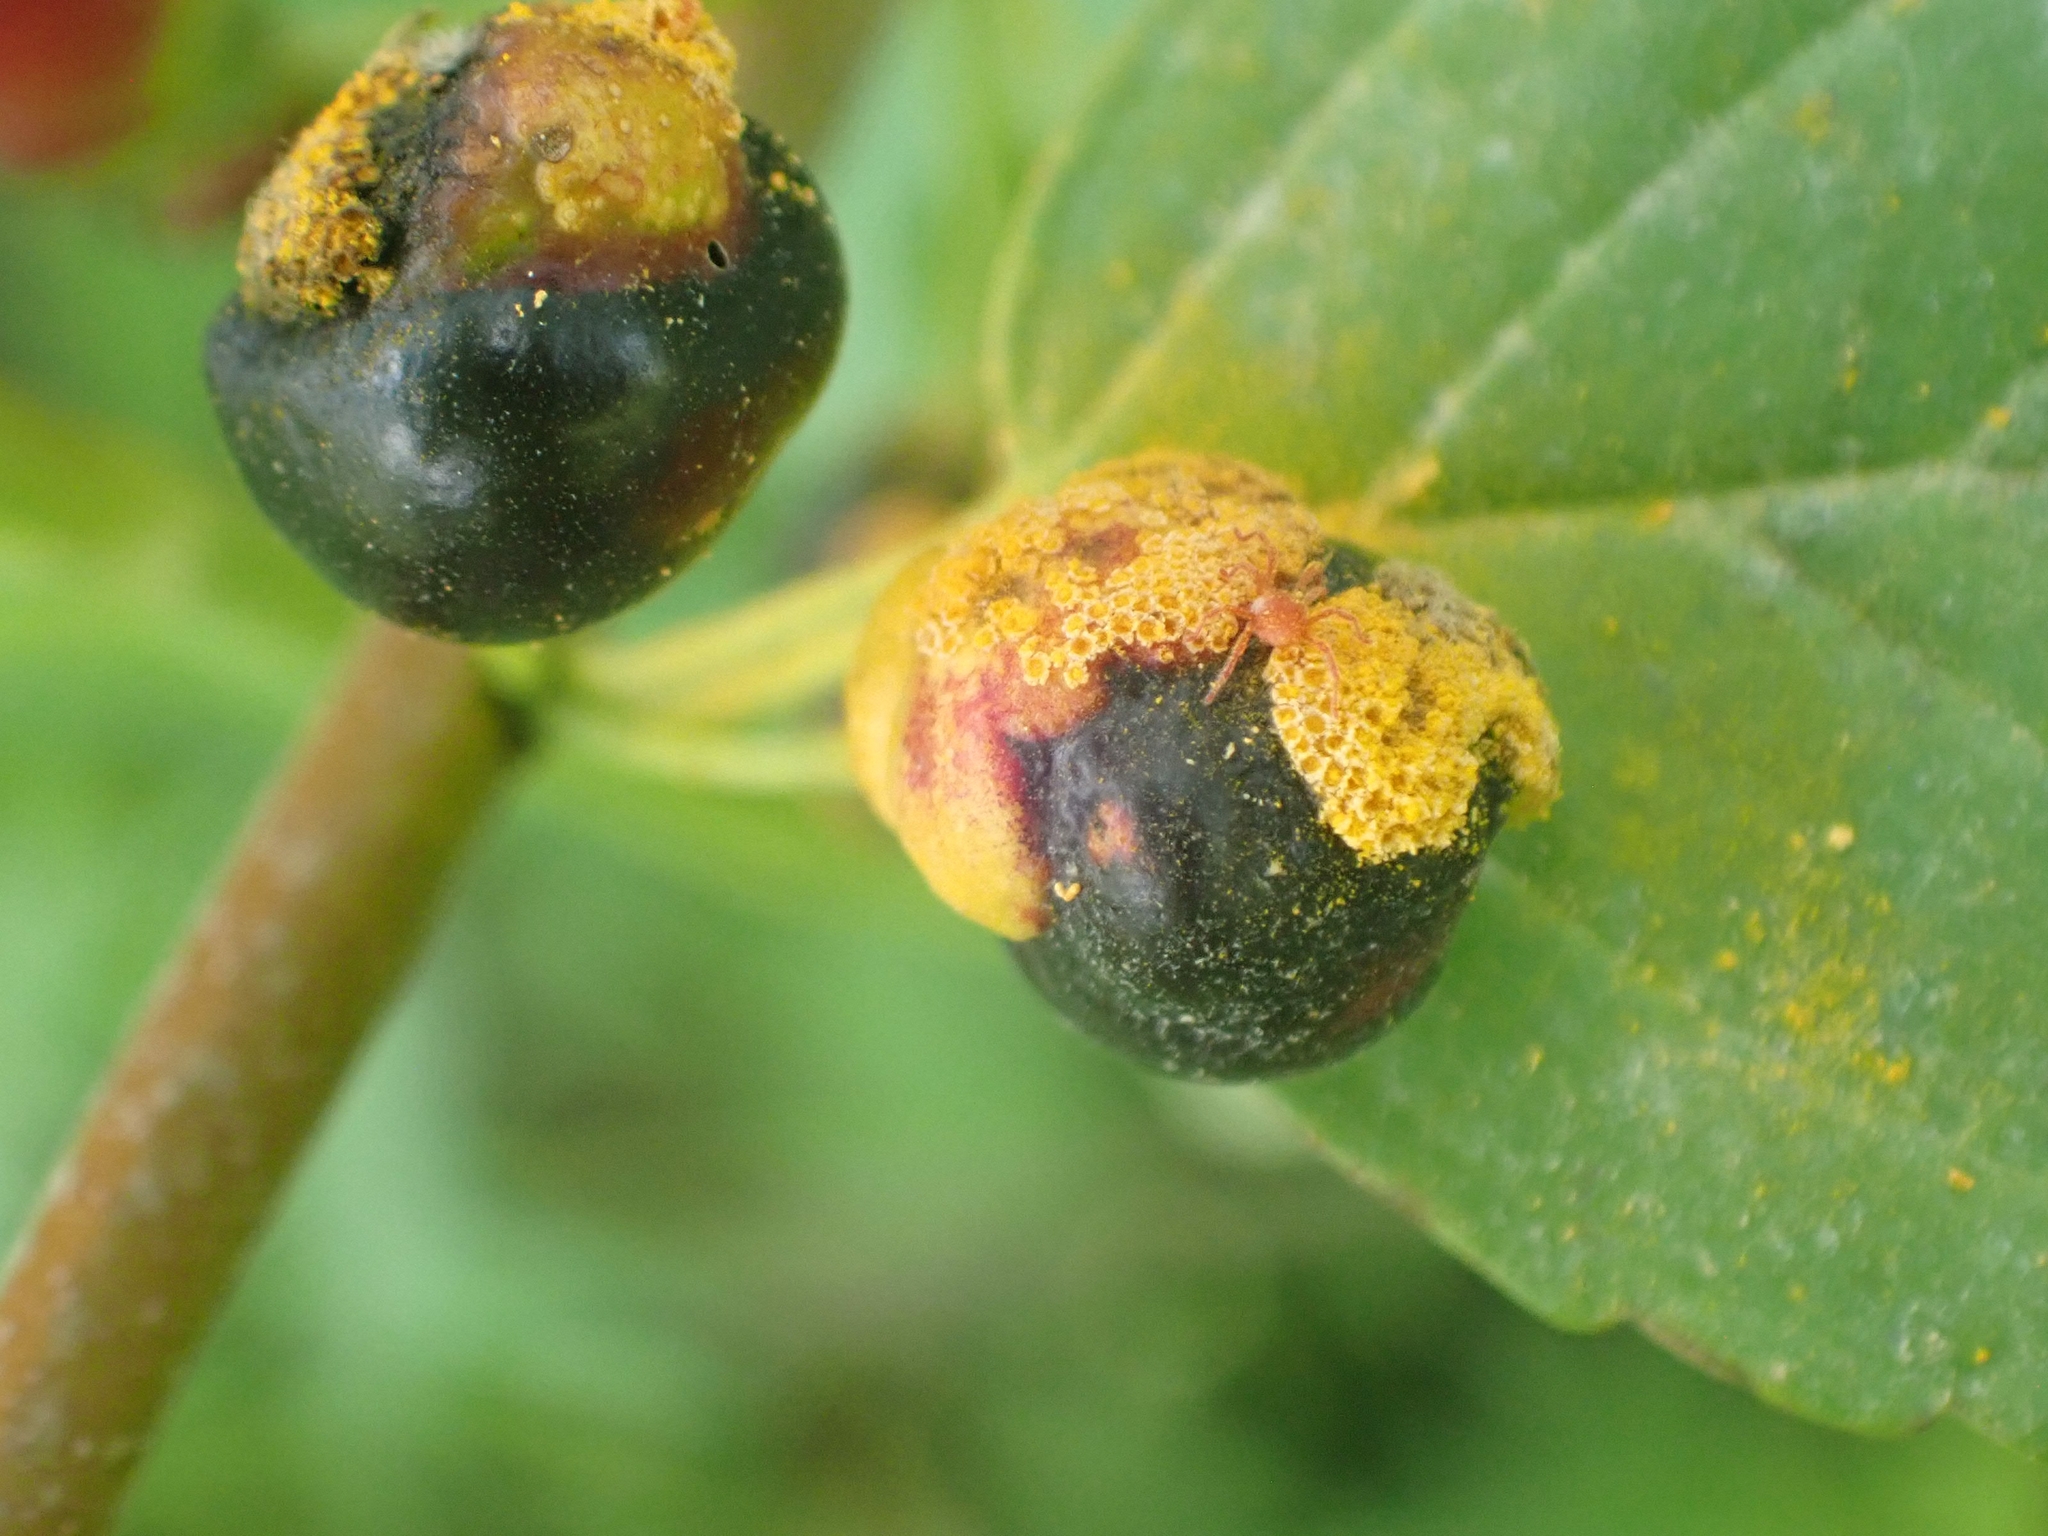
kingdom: Fungi
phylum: Basidiomycota
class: Pucciniomycetes
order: Pucciniales
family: Pucciniaceae
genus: Puccinia
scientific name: Puccinia coronata
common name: Crown rust
